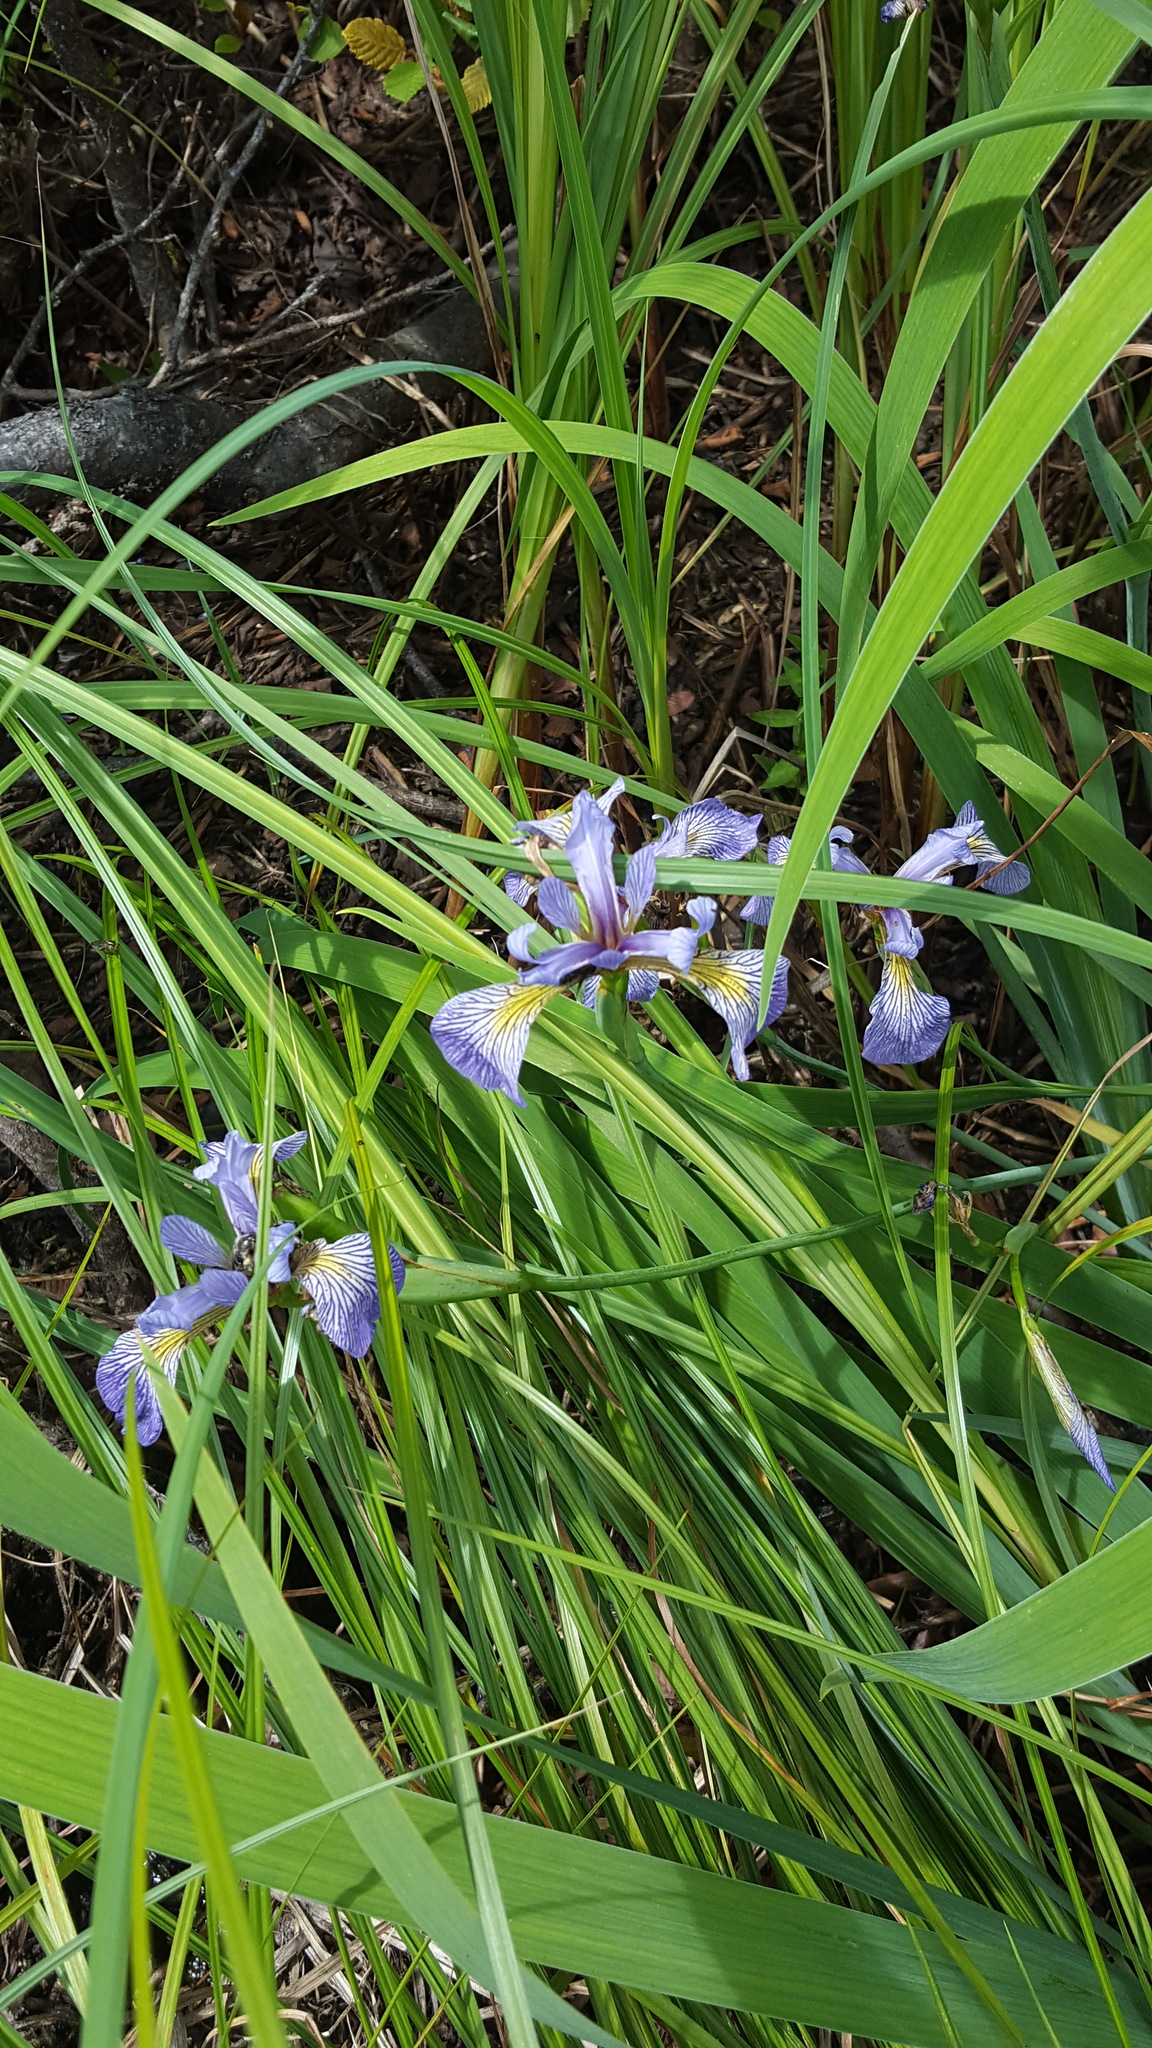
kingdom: Plantae
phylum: Tracheophyta
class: Liliopsida
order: Asparagales
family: Iridaceae
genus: Iris
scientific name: Iris versicolor
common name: Purple iris
